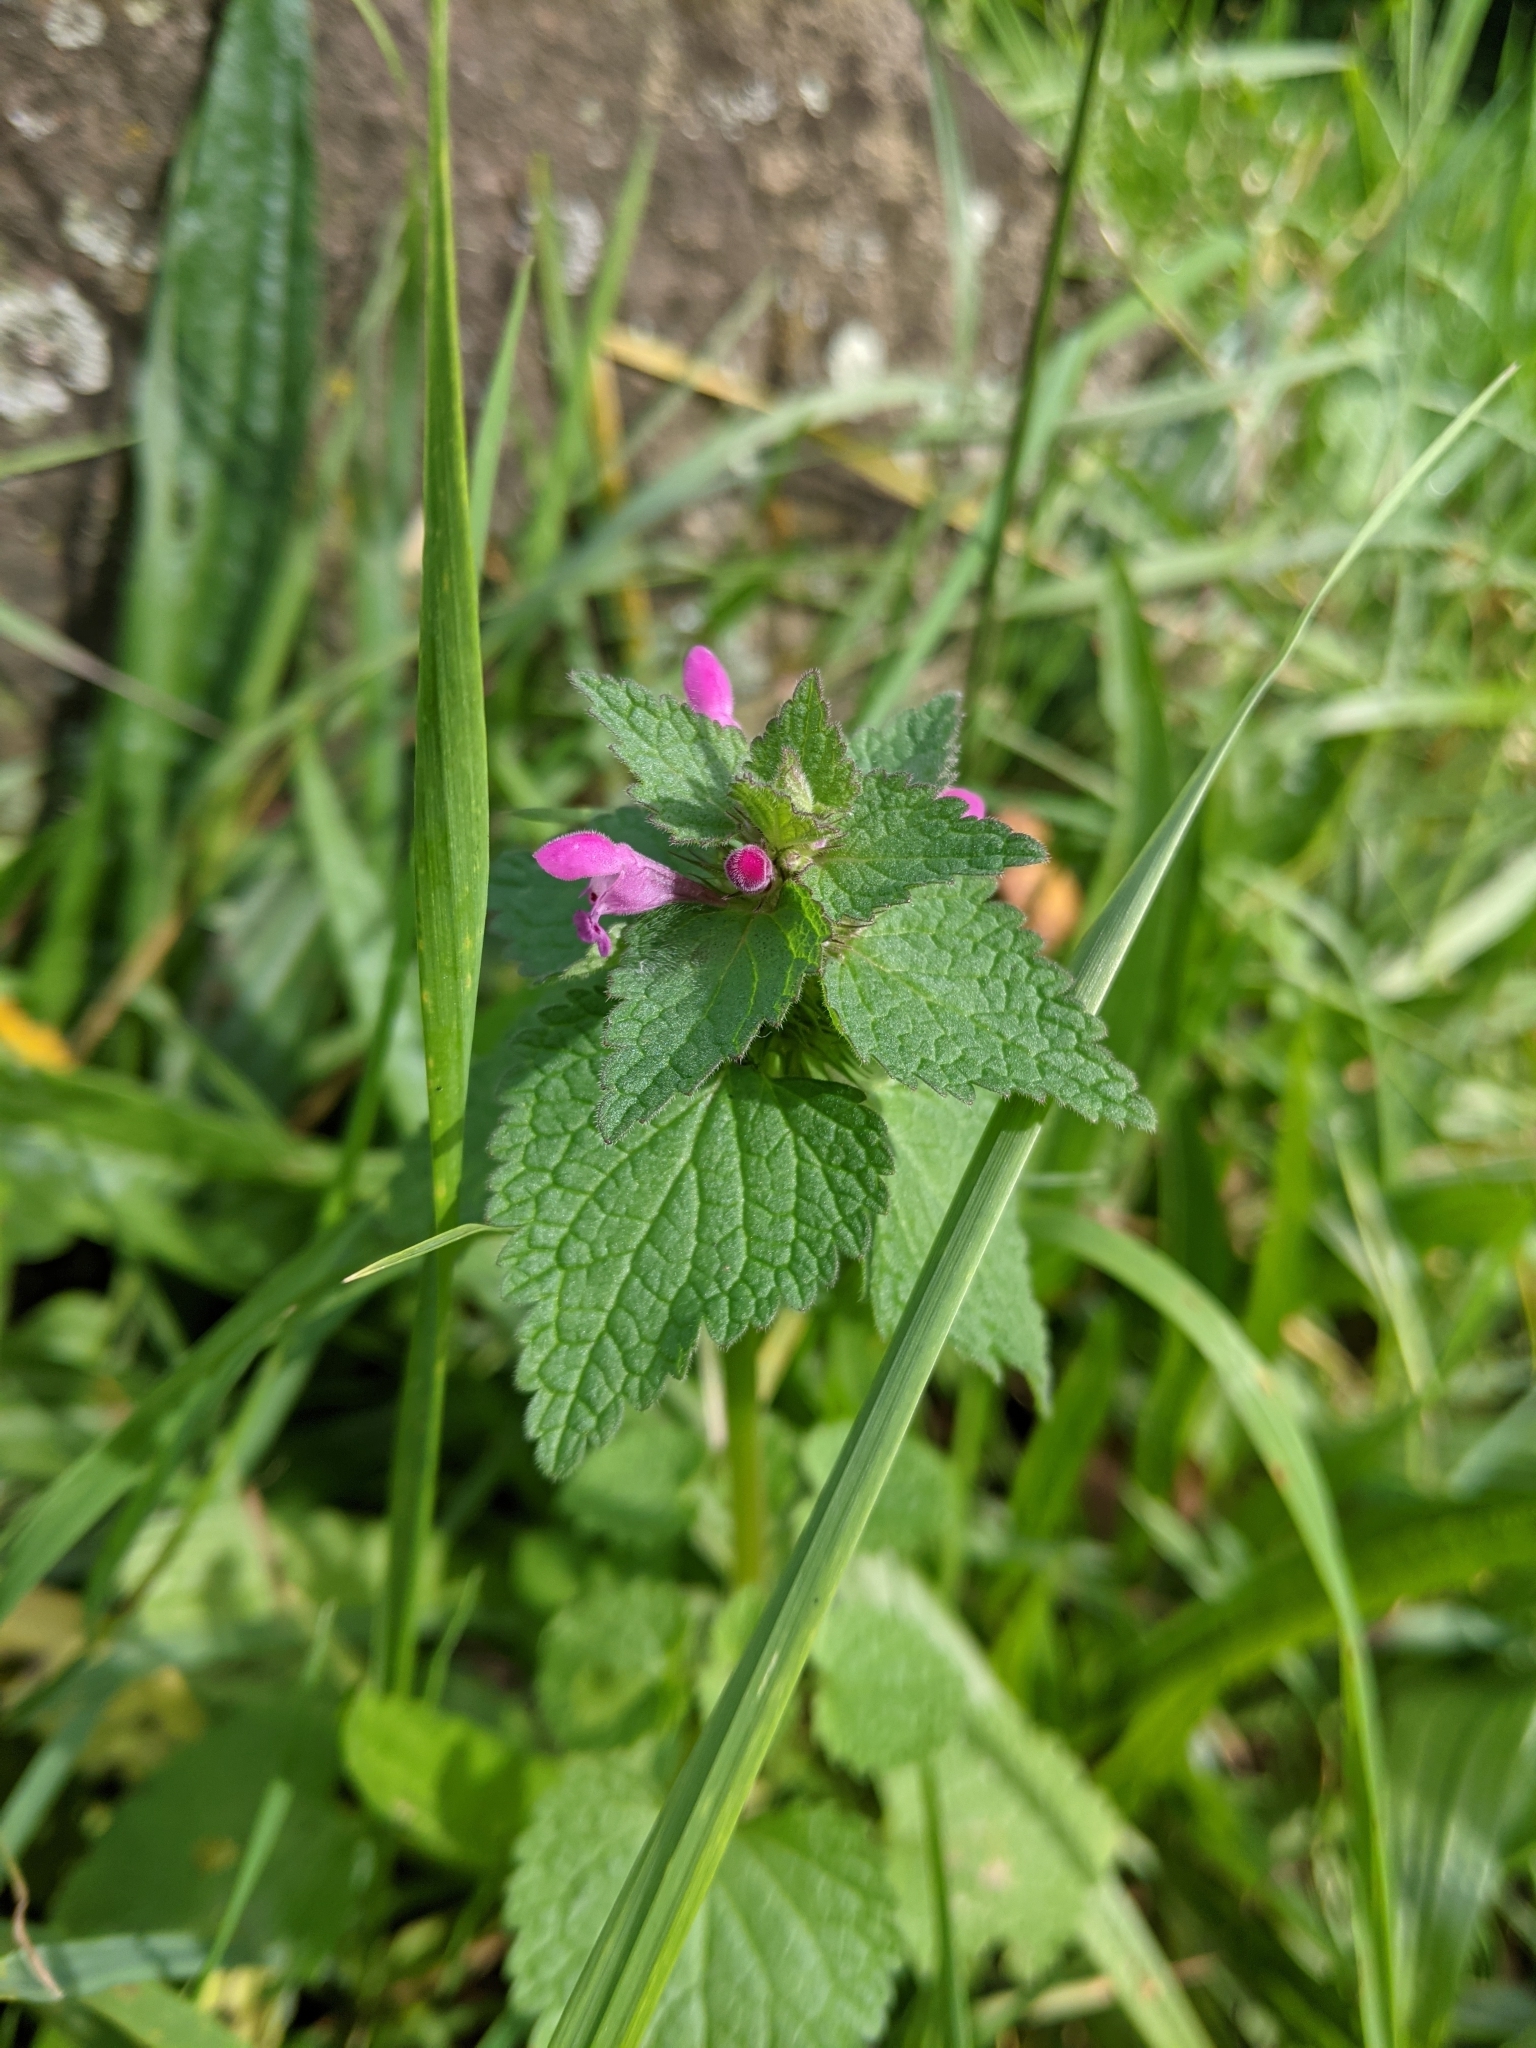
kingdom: Plantae
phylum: Tracheophyta
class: Magnoliopsida
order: Lamiales
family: Lamiaceae
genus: Lamium
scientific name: Lamium purpureum
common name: Red dead-nettle
